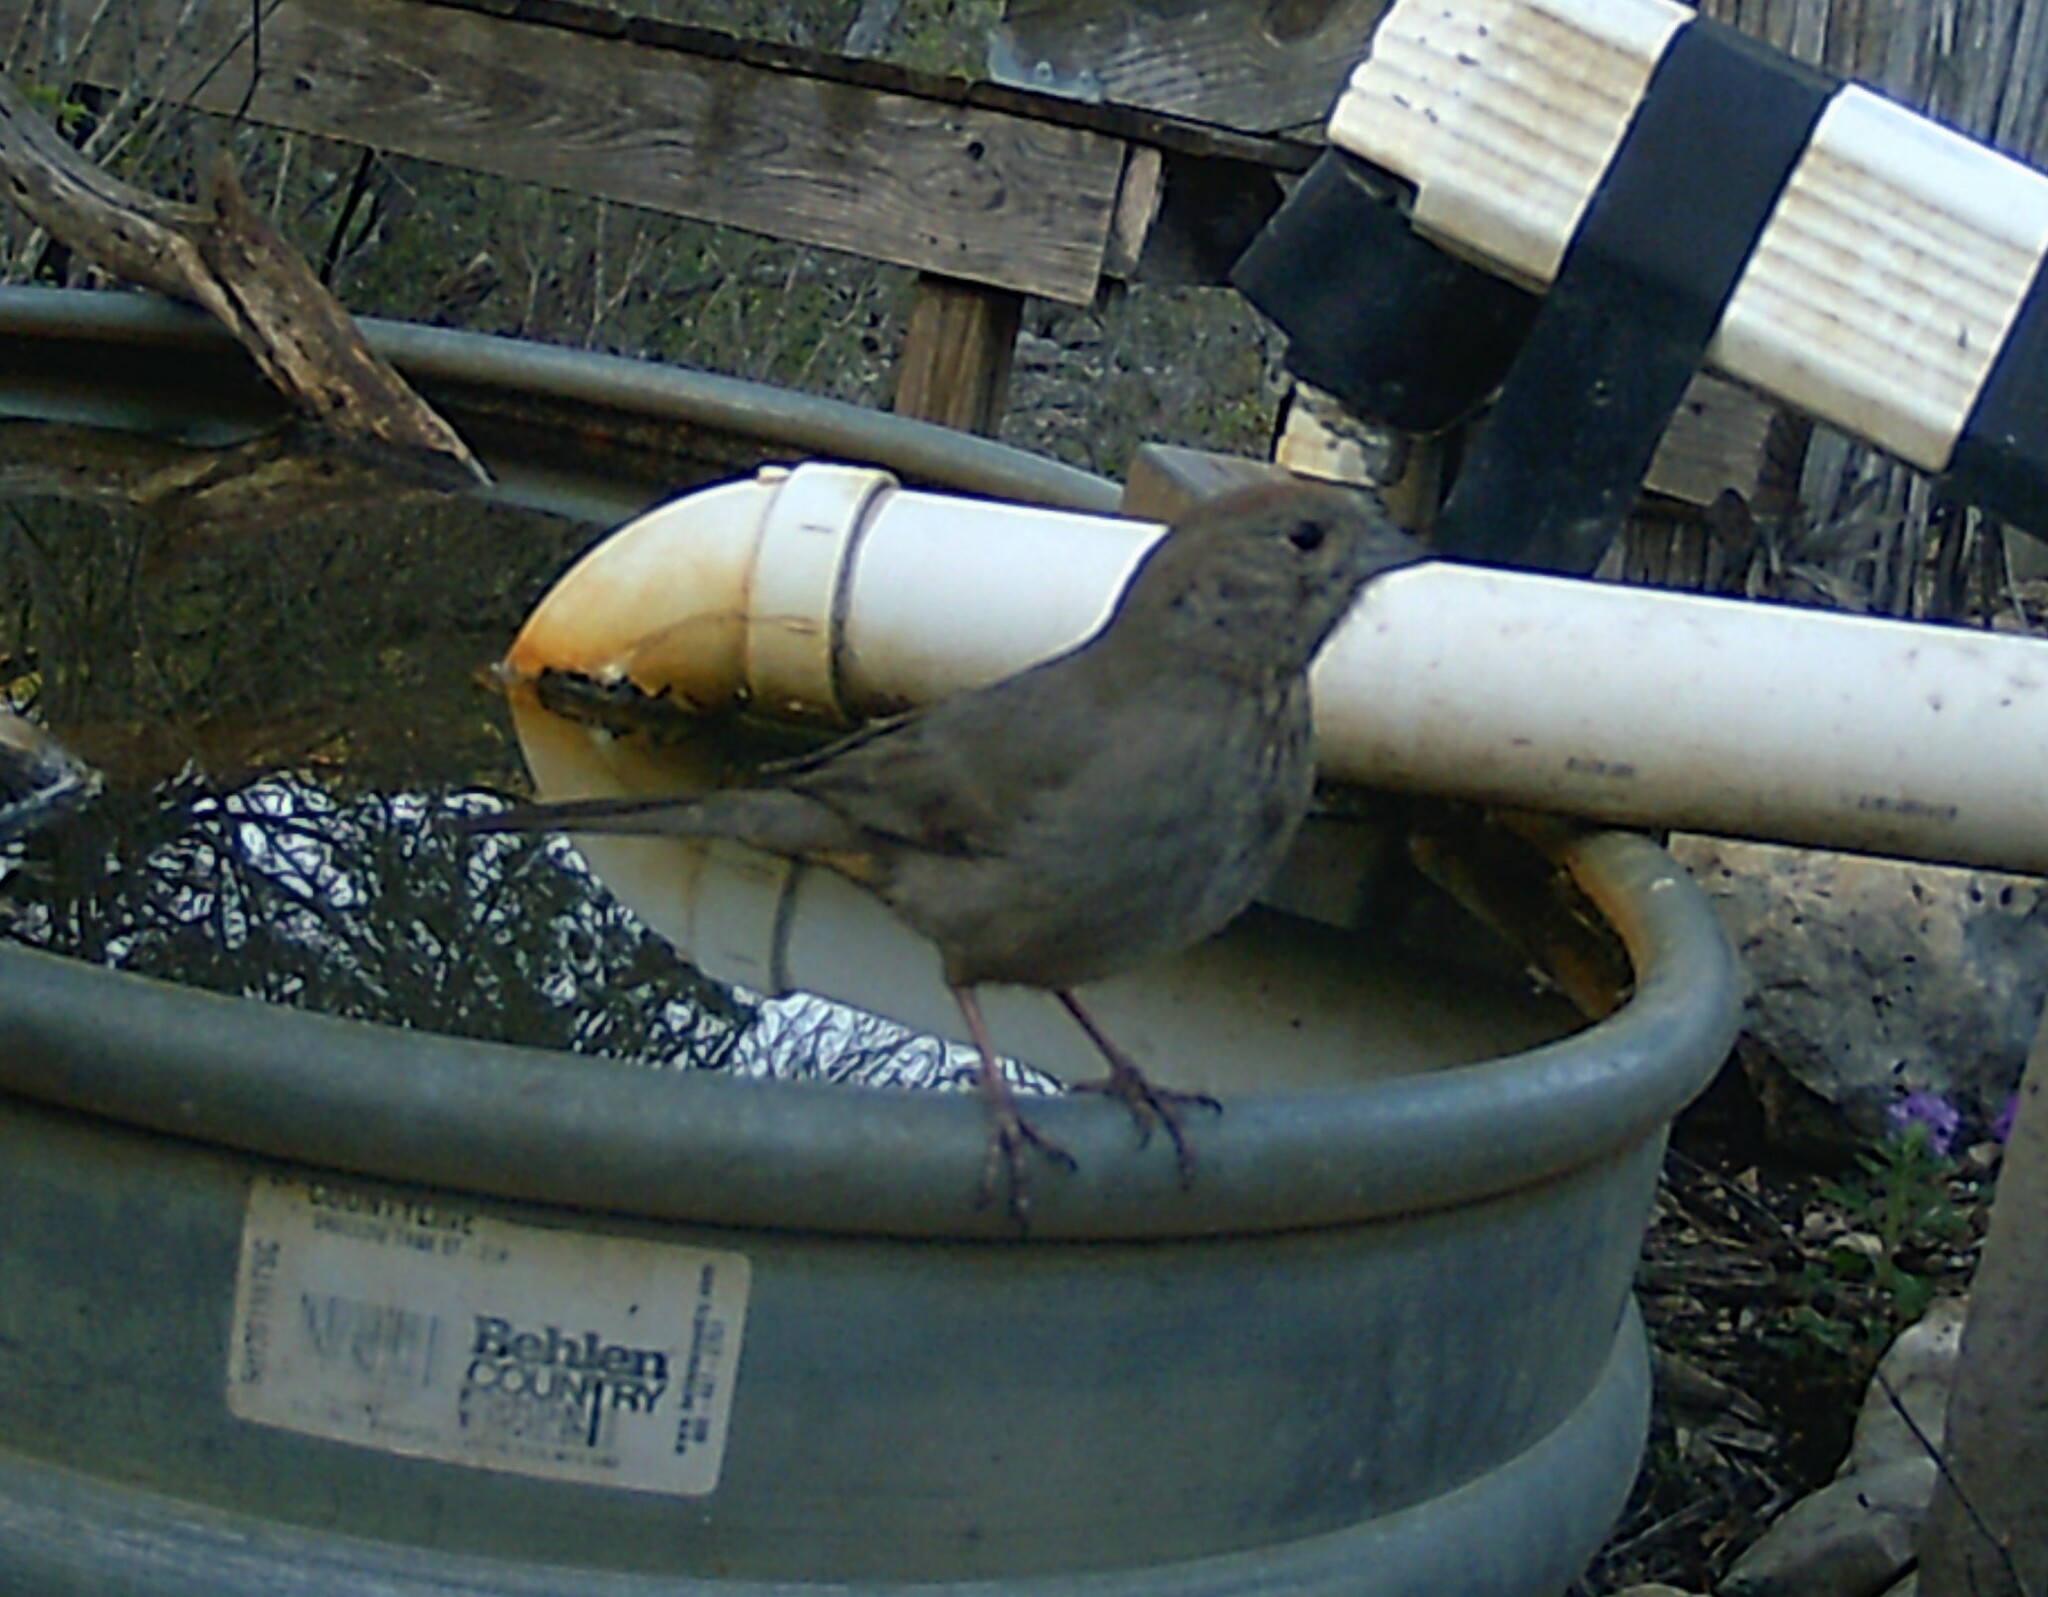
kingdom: Animalia
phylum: Chordata
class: Aves
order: Passeriformes
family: Passerellidae
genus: Melozone
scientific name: Melozone fusca
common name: Canyon towhee
